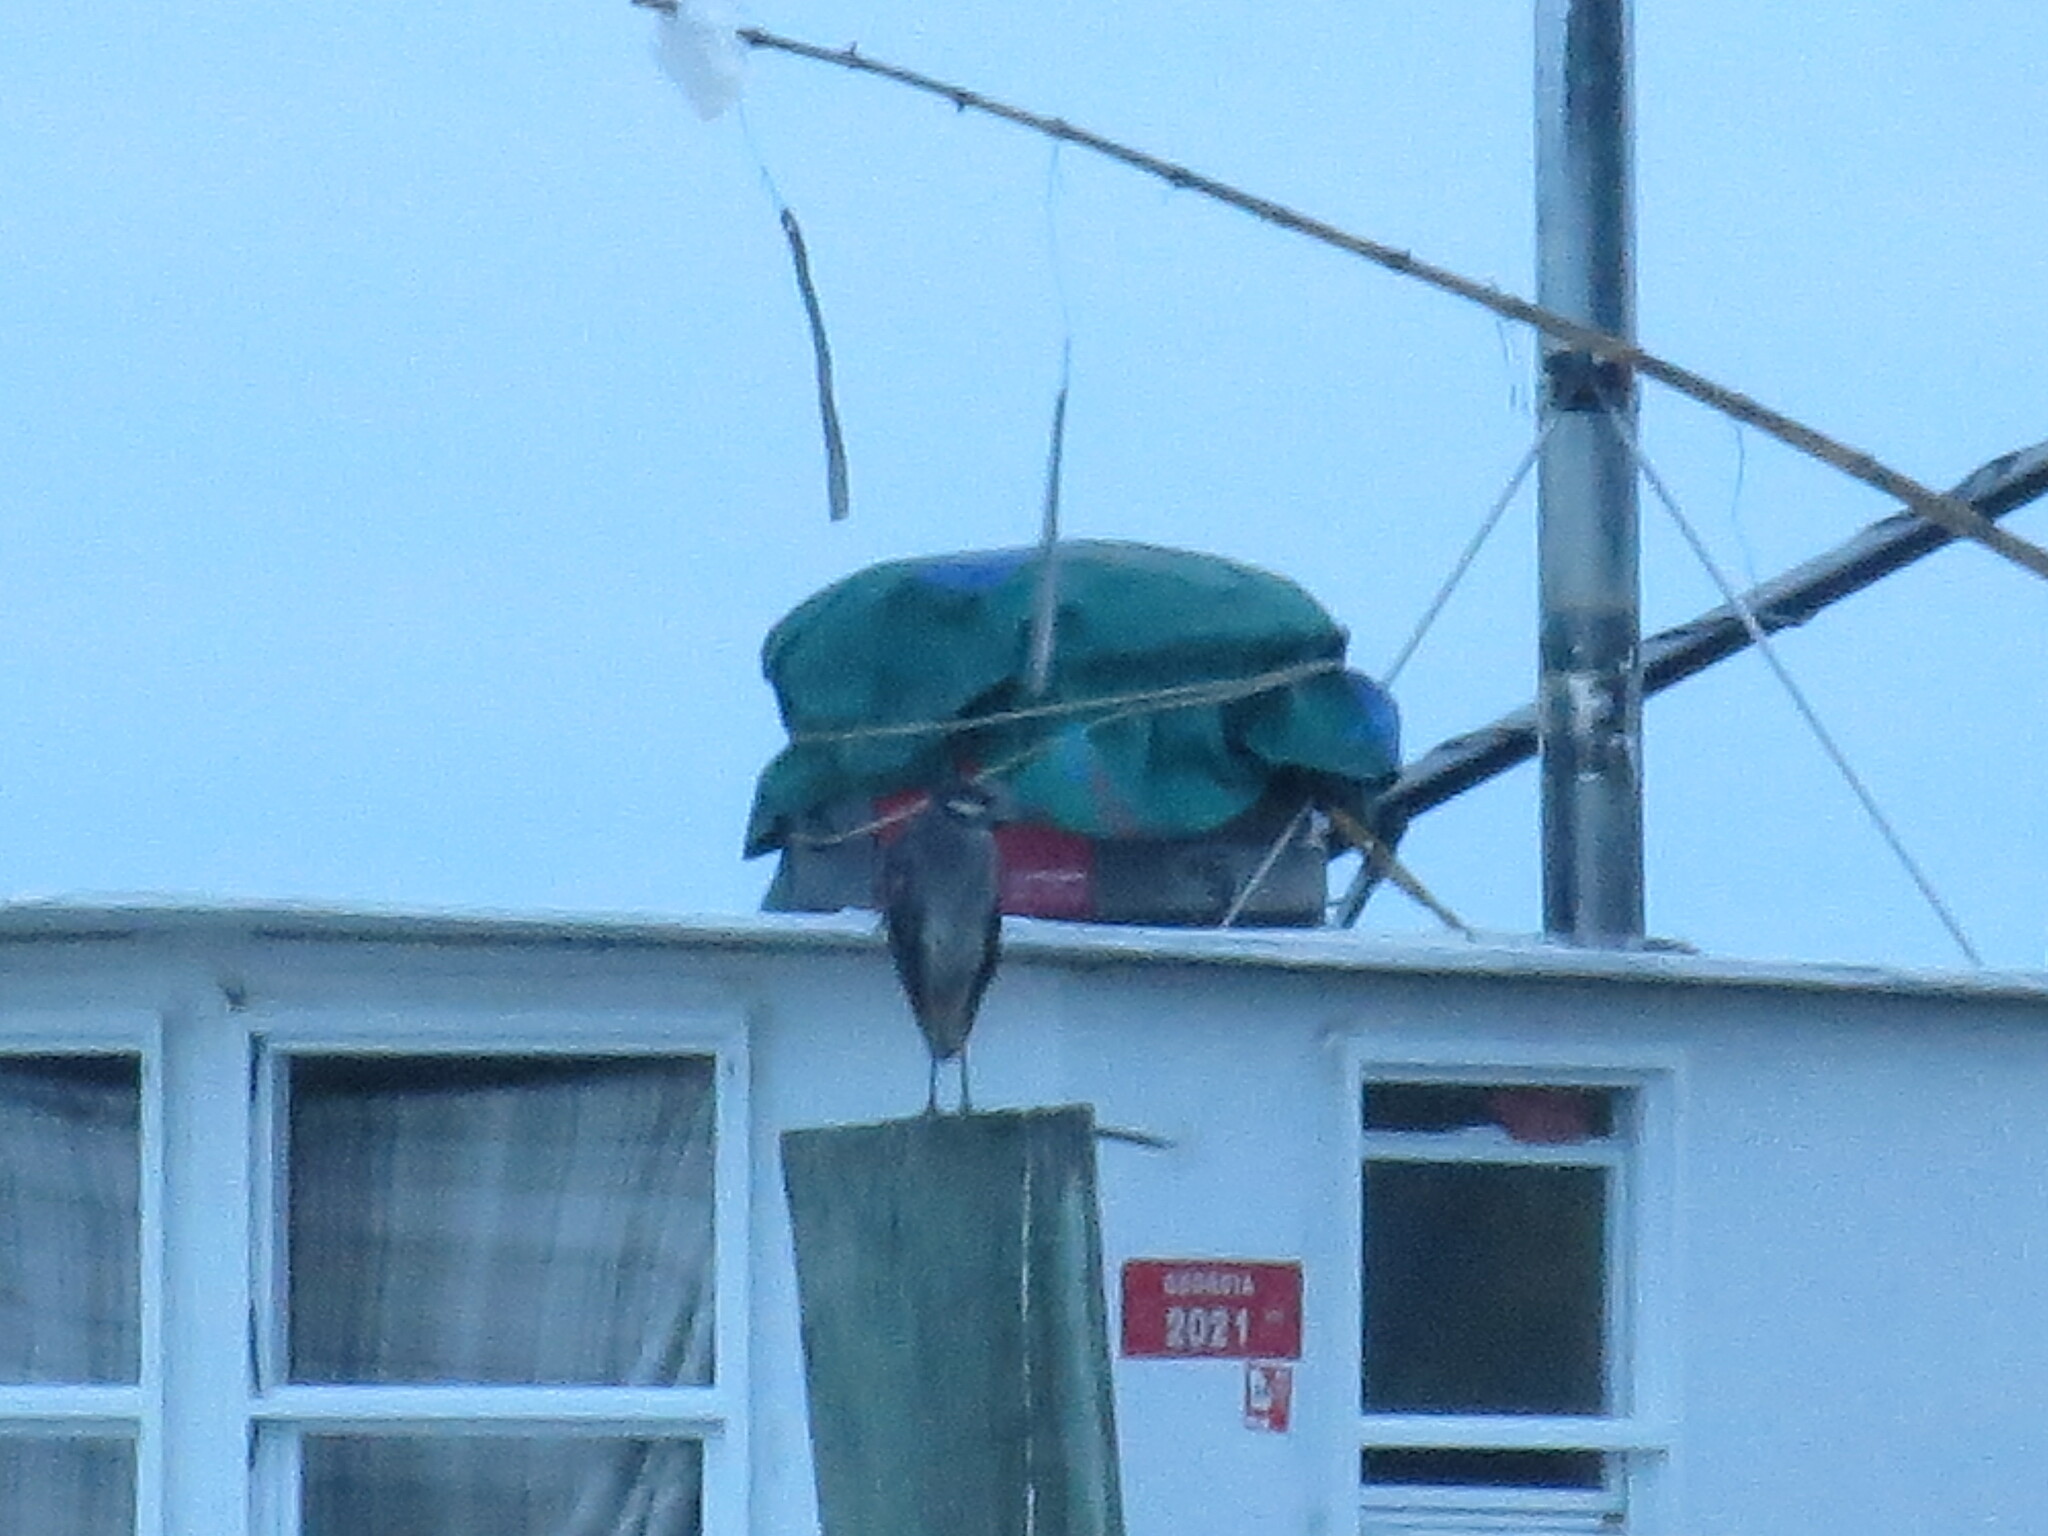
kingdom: Animalia
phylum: Chordata
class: Aves
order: Pelecaniformes
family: Ardeidae
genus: Nyctanassa
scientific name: Nyctanassa violacea
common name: Yellow-crowned night heron
